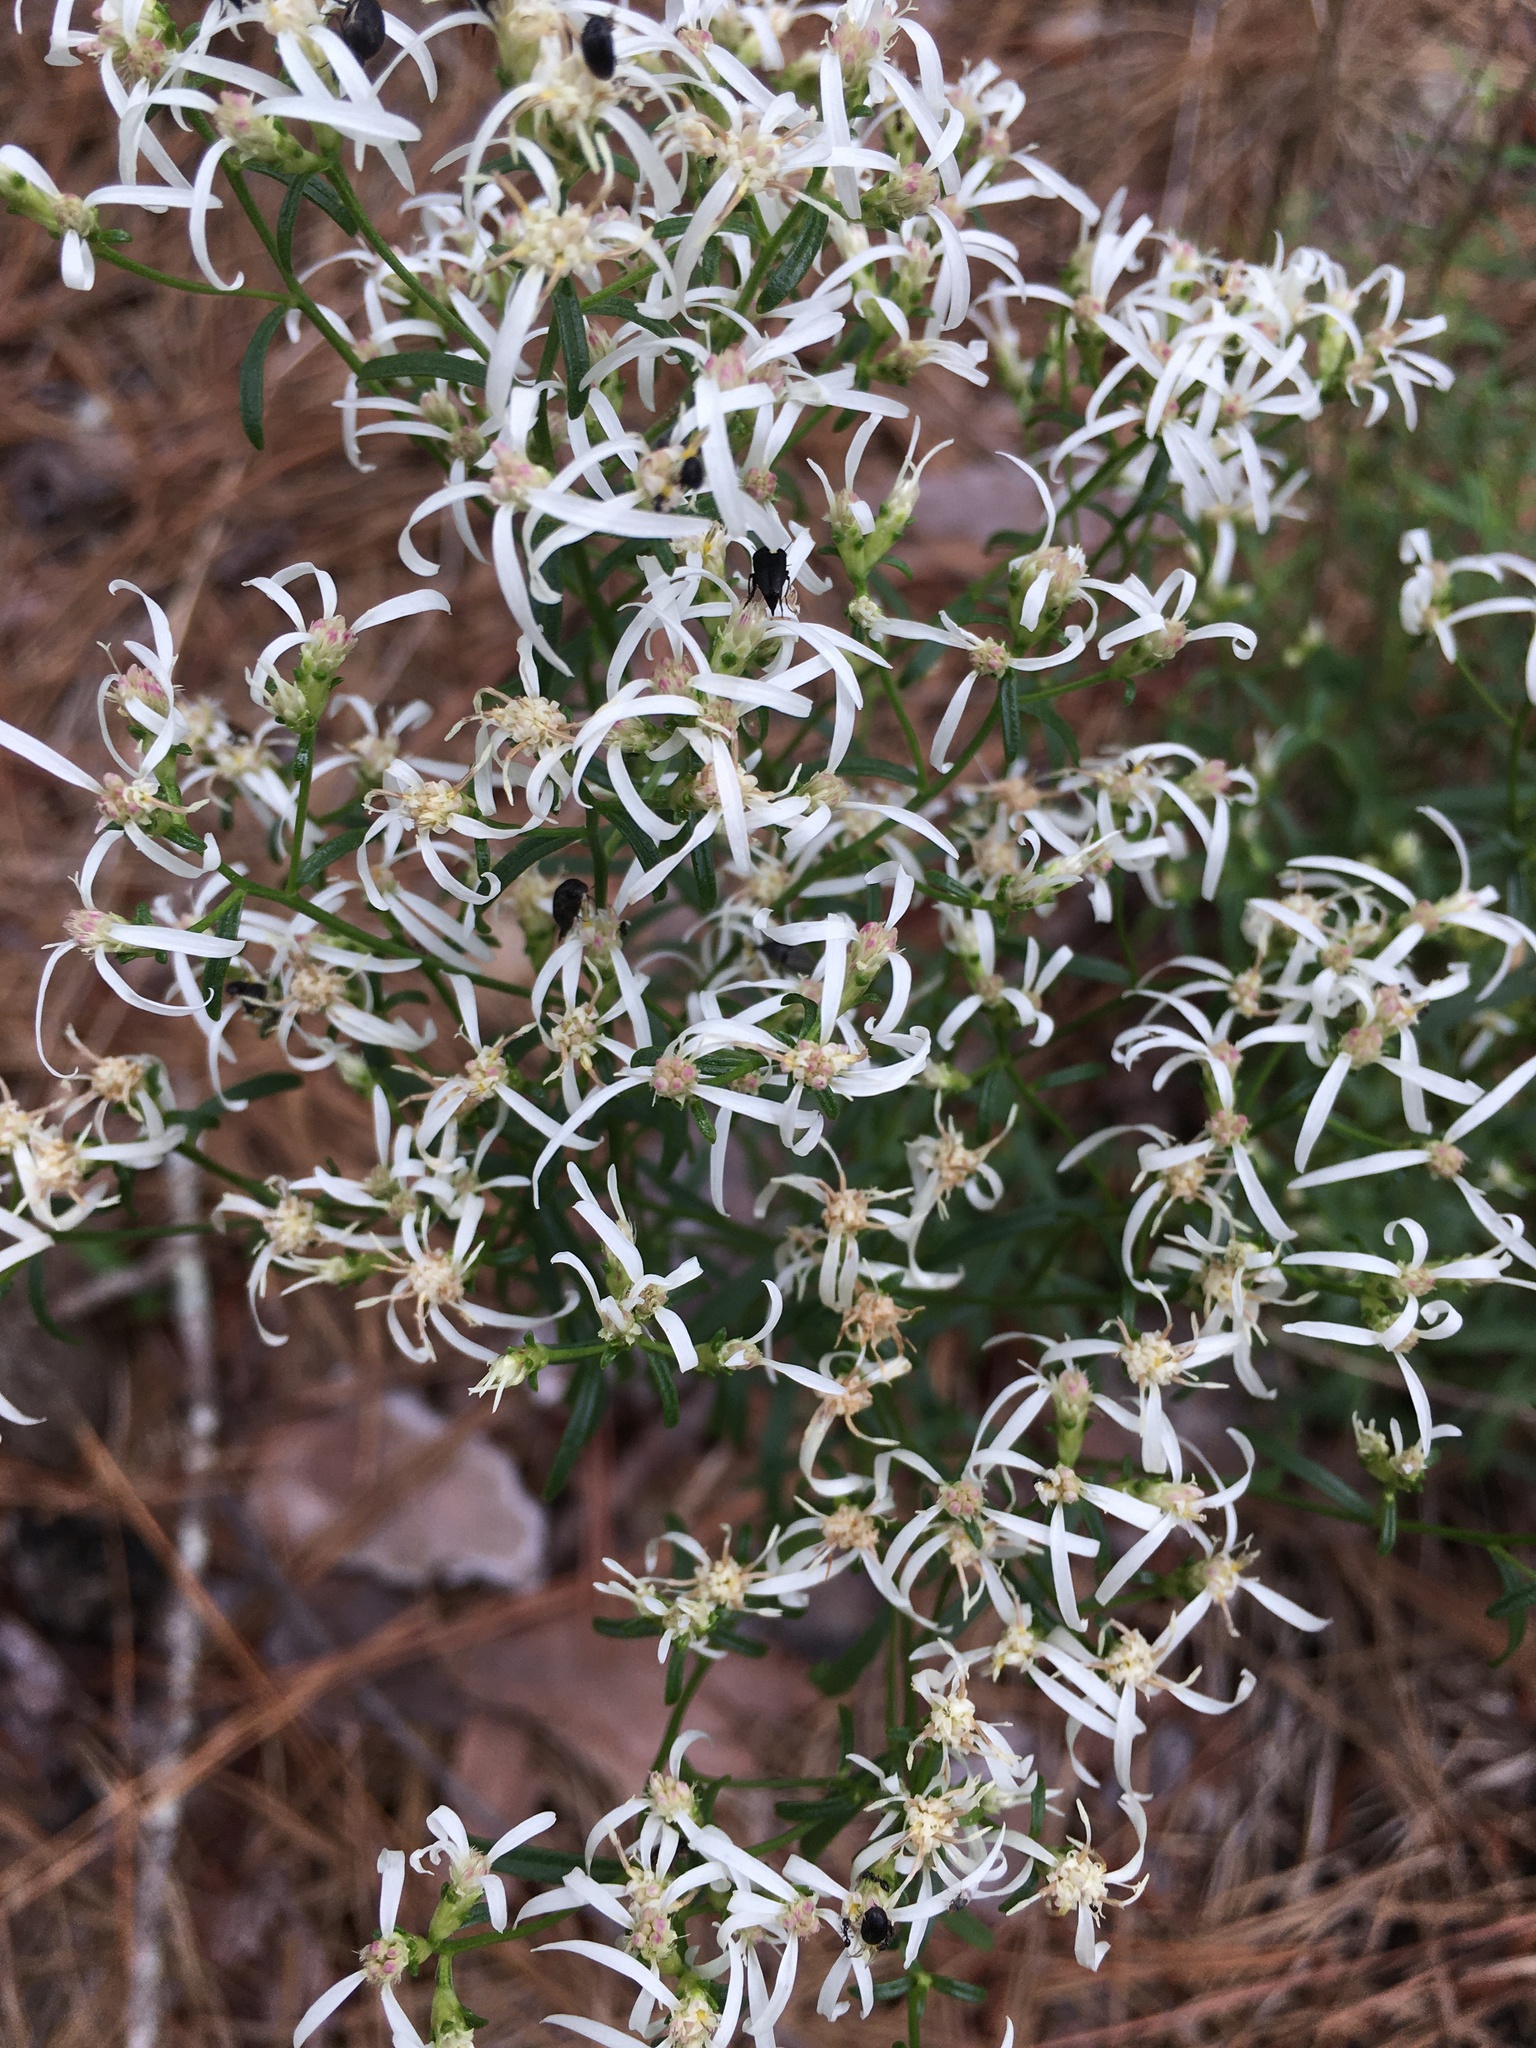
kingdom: Plantae
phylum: Tracheophyta
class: Magnoliopsida
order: Asterales
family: Asteraceae
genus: Sericocarpus
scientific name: Sericocarpus linifolius
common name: Narrow-leaf aster
